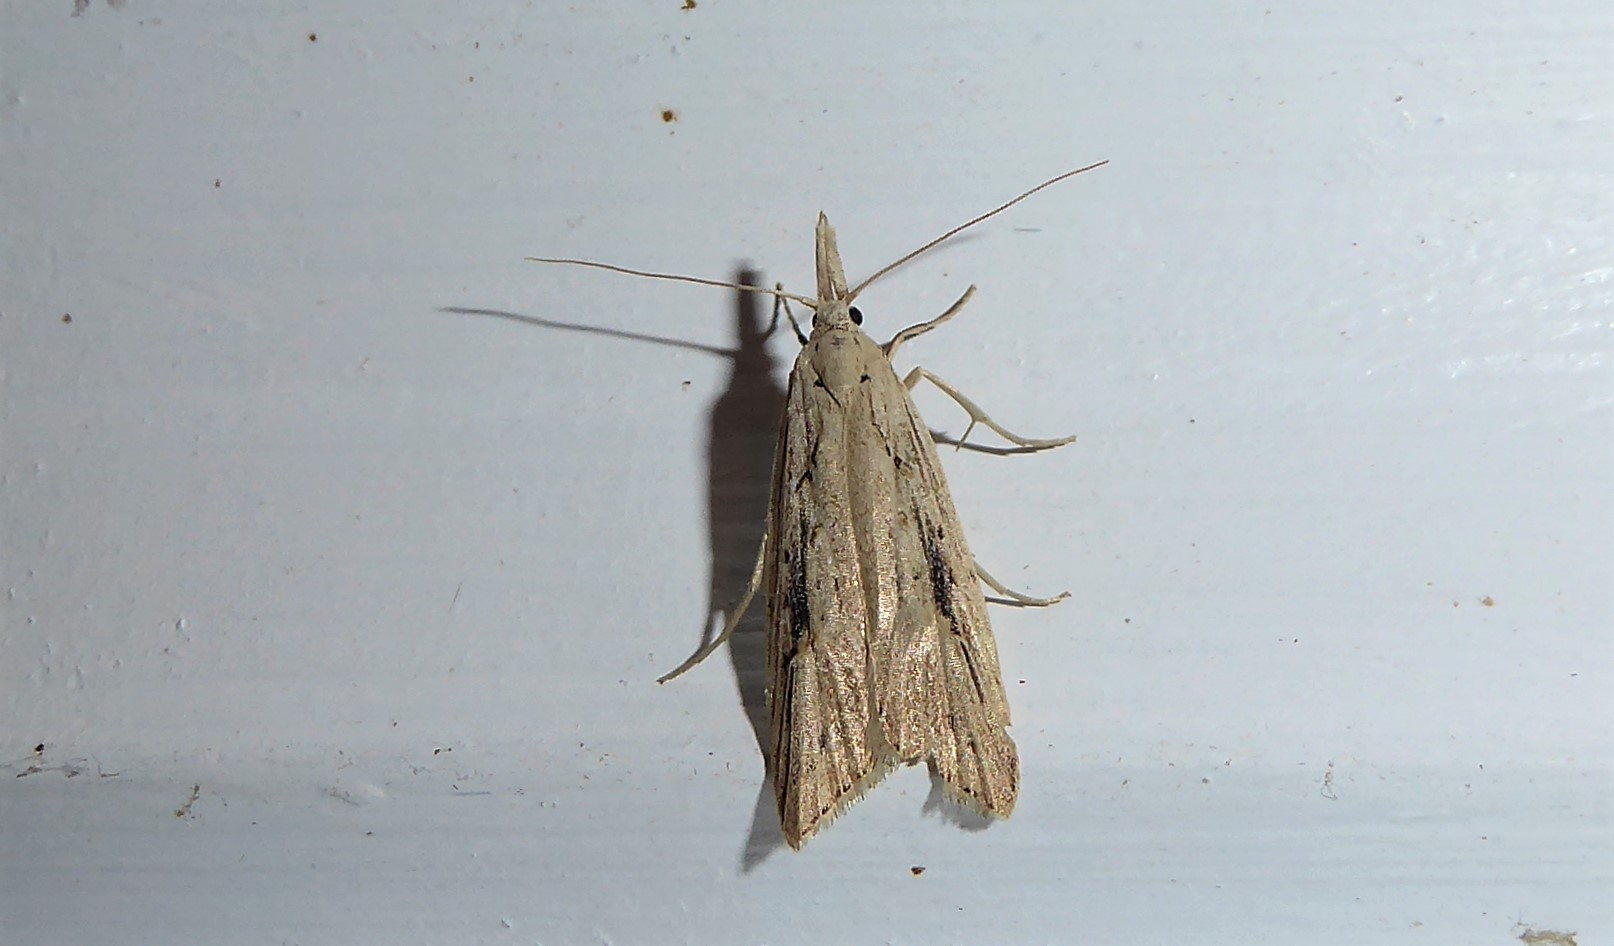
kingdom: Animalia
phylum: Arthropoda
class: Insecta
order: Lepidoptera
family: Carposinidae
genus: Carposina
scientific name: Carposina Heterocrossa exochana
